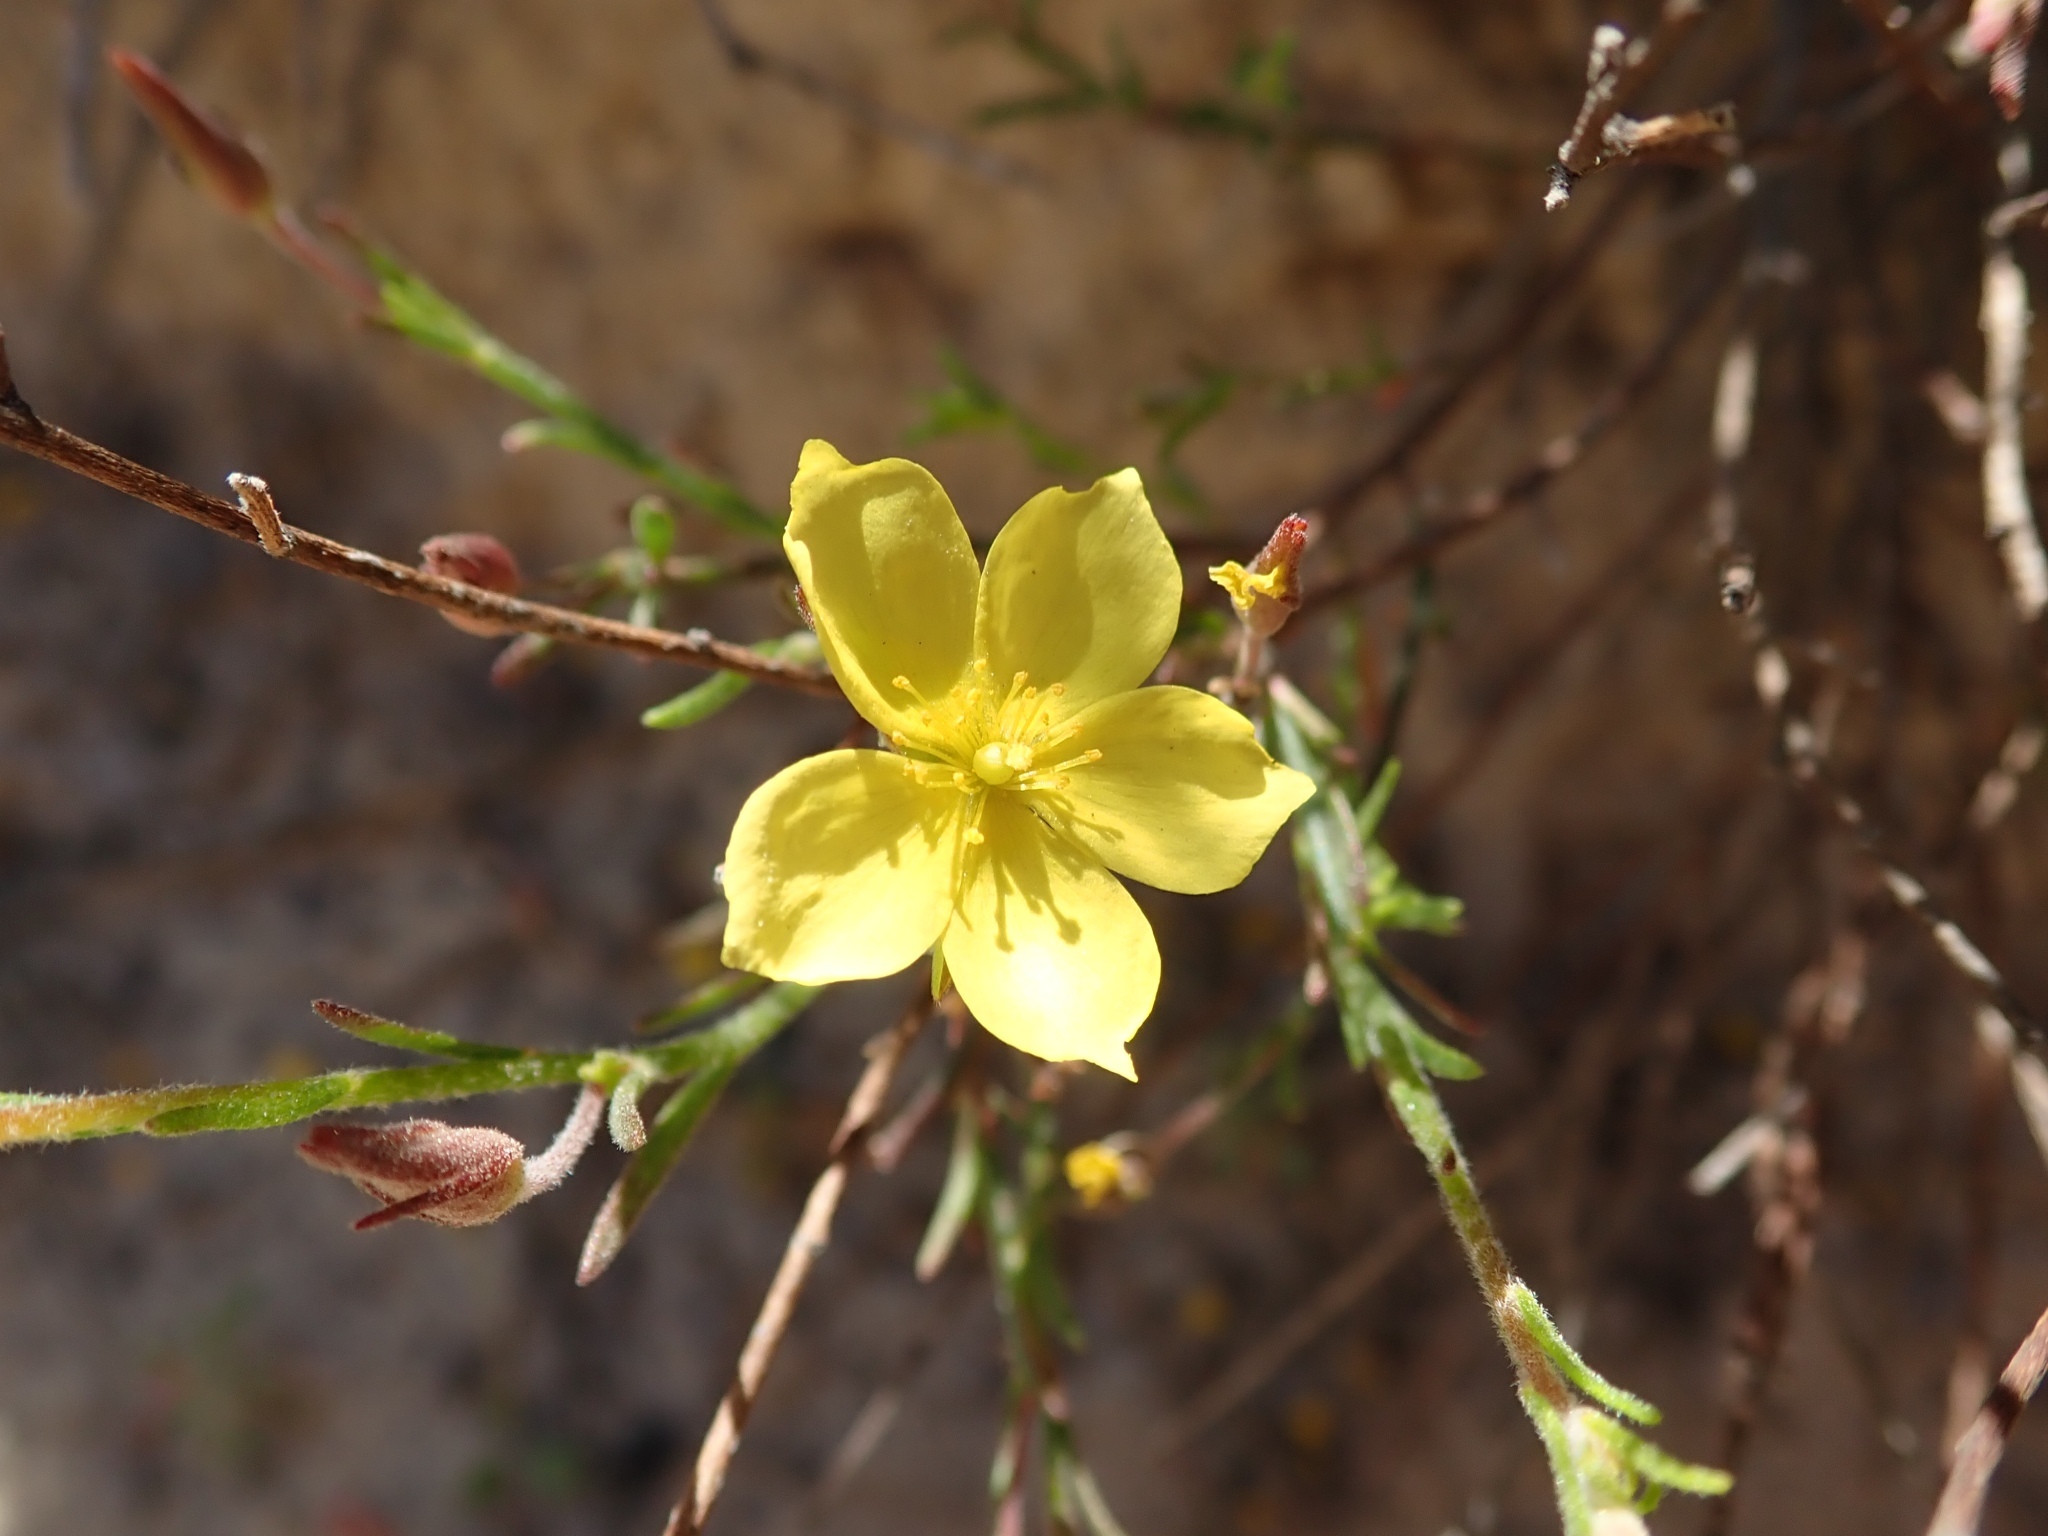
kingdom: Plantae
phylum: Tracheophyta
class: Magnoliopsida
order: Malvales
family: Cistaceae
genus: Crocanthemum
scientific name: Crocanthemum scoparium
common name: Broom-rose
